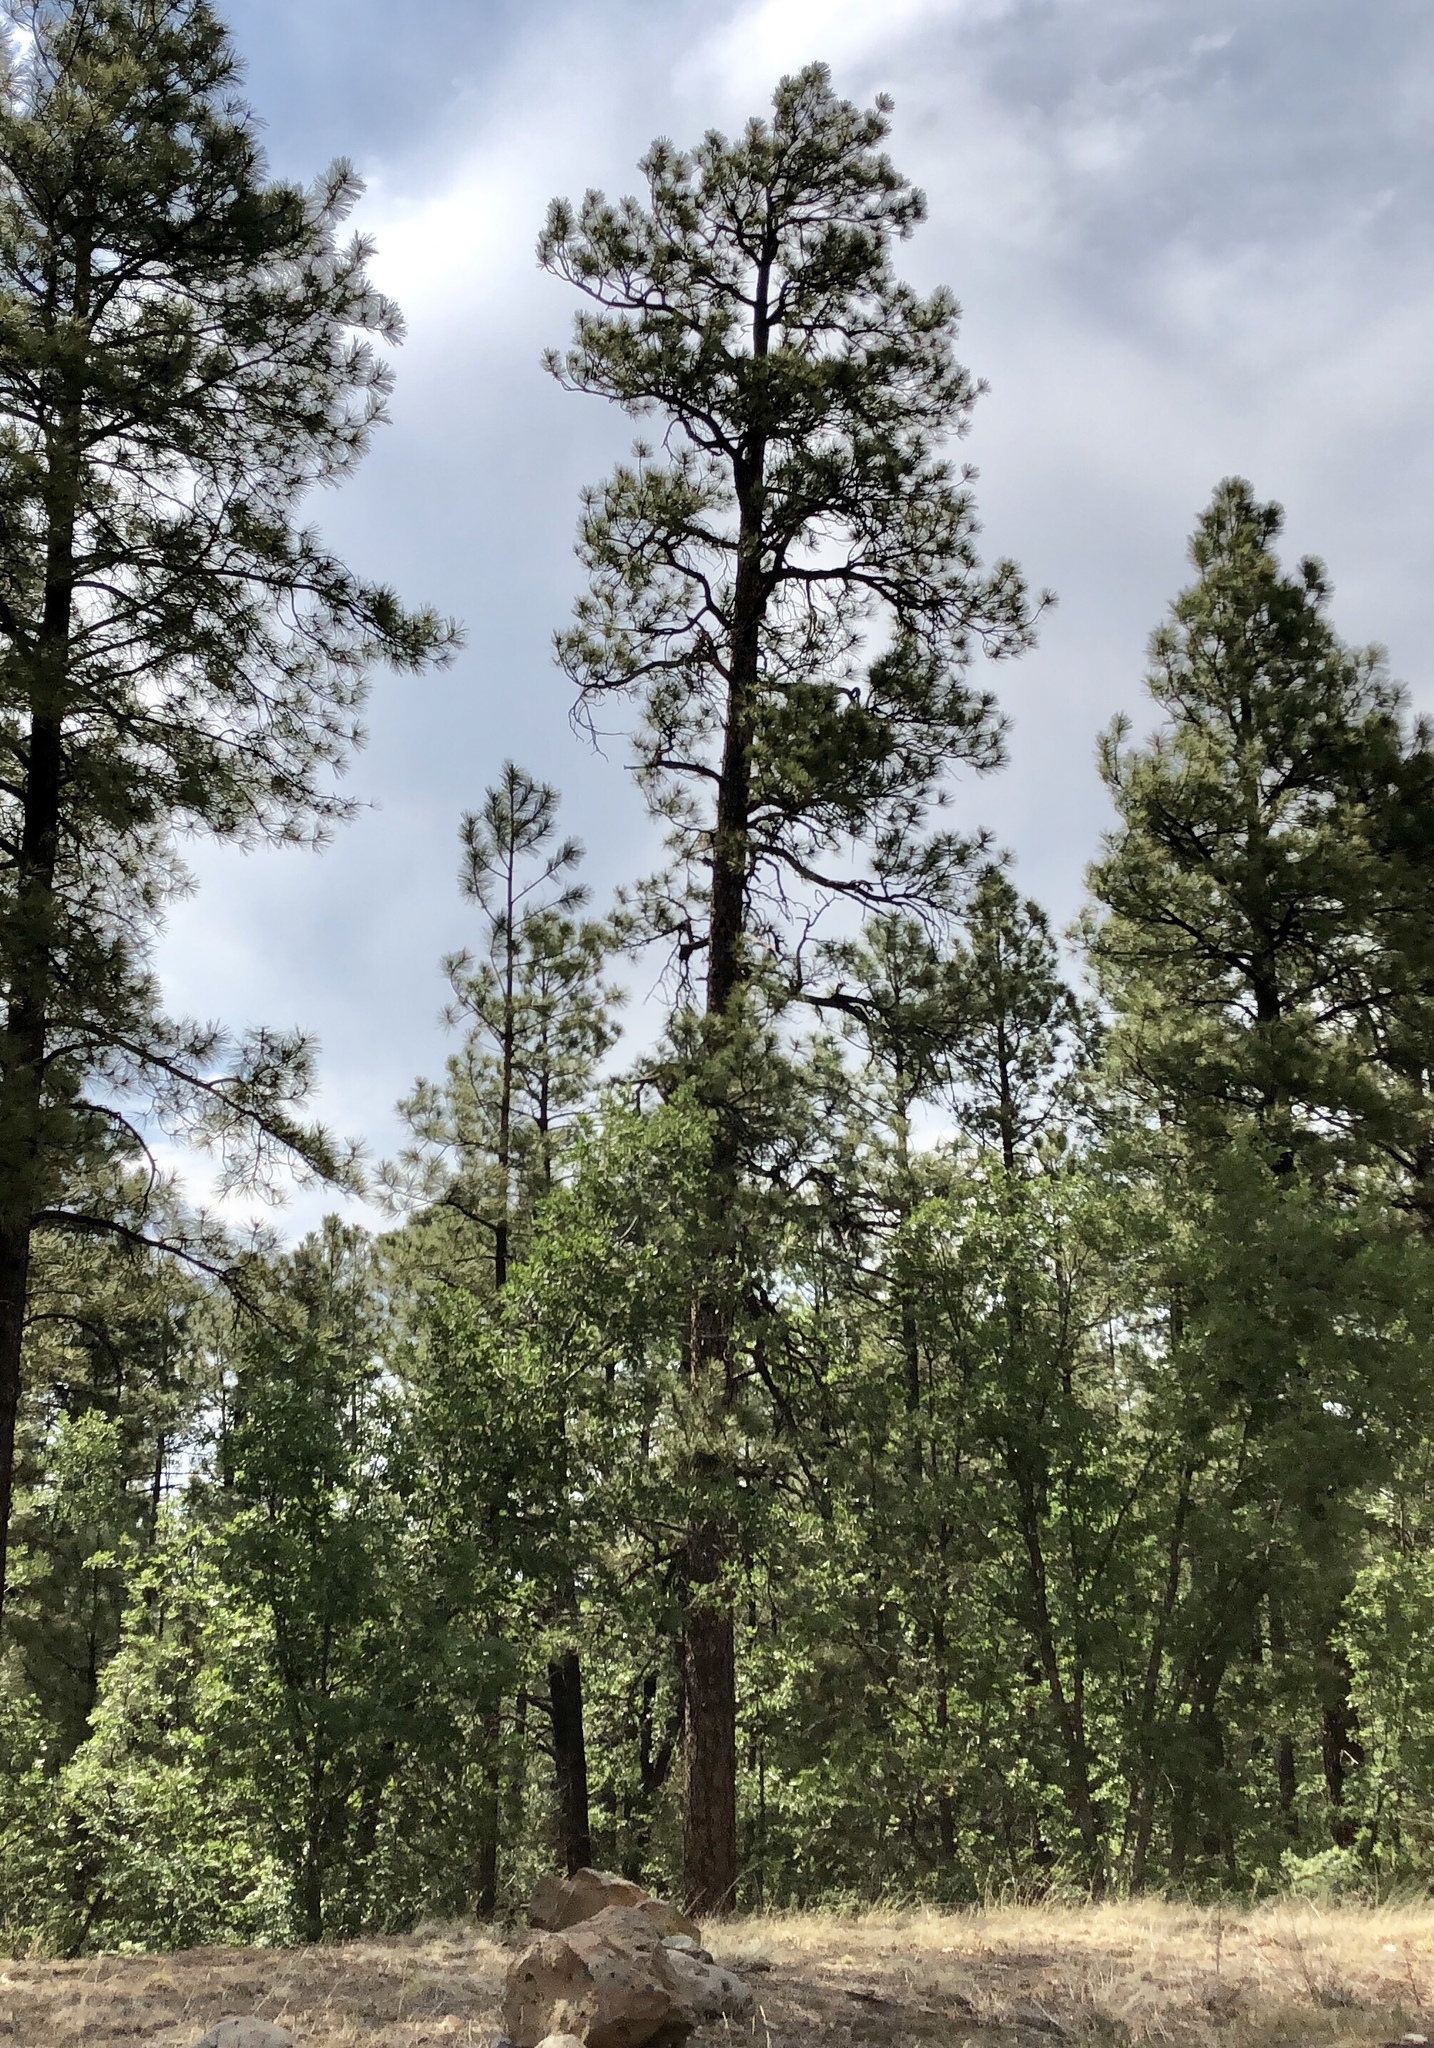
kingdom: Plantae
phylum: Tracheophyta
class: Pinopsida
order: Pinales
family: Pinaceae
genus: Pinus
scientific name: Pinus ponderosa
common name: Western yellow-pine
